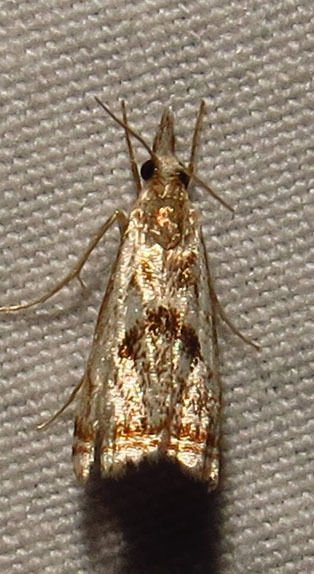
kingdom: Animalia
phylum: Arthropoda
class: Insecta
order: Lepidoptera
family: Crambidae
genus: Microcrambus
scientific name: Microcrambus elegans
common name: Elegant grass-veneer
